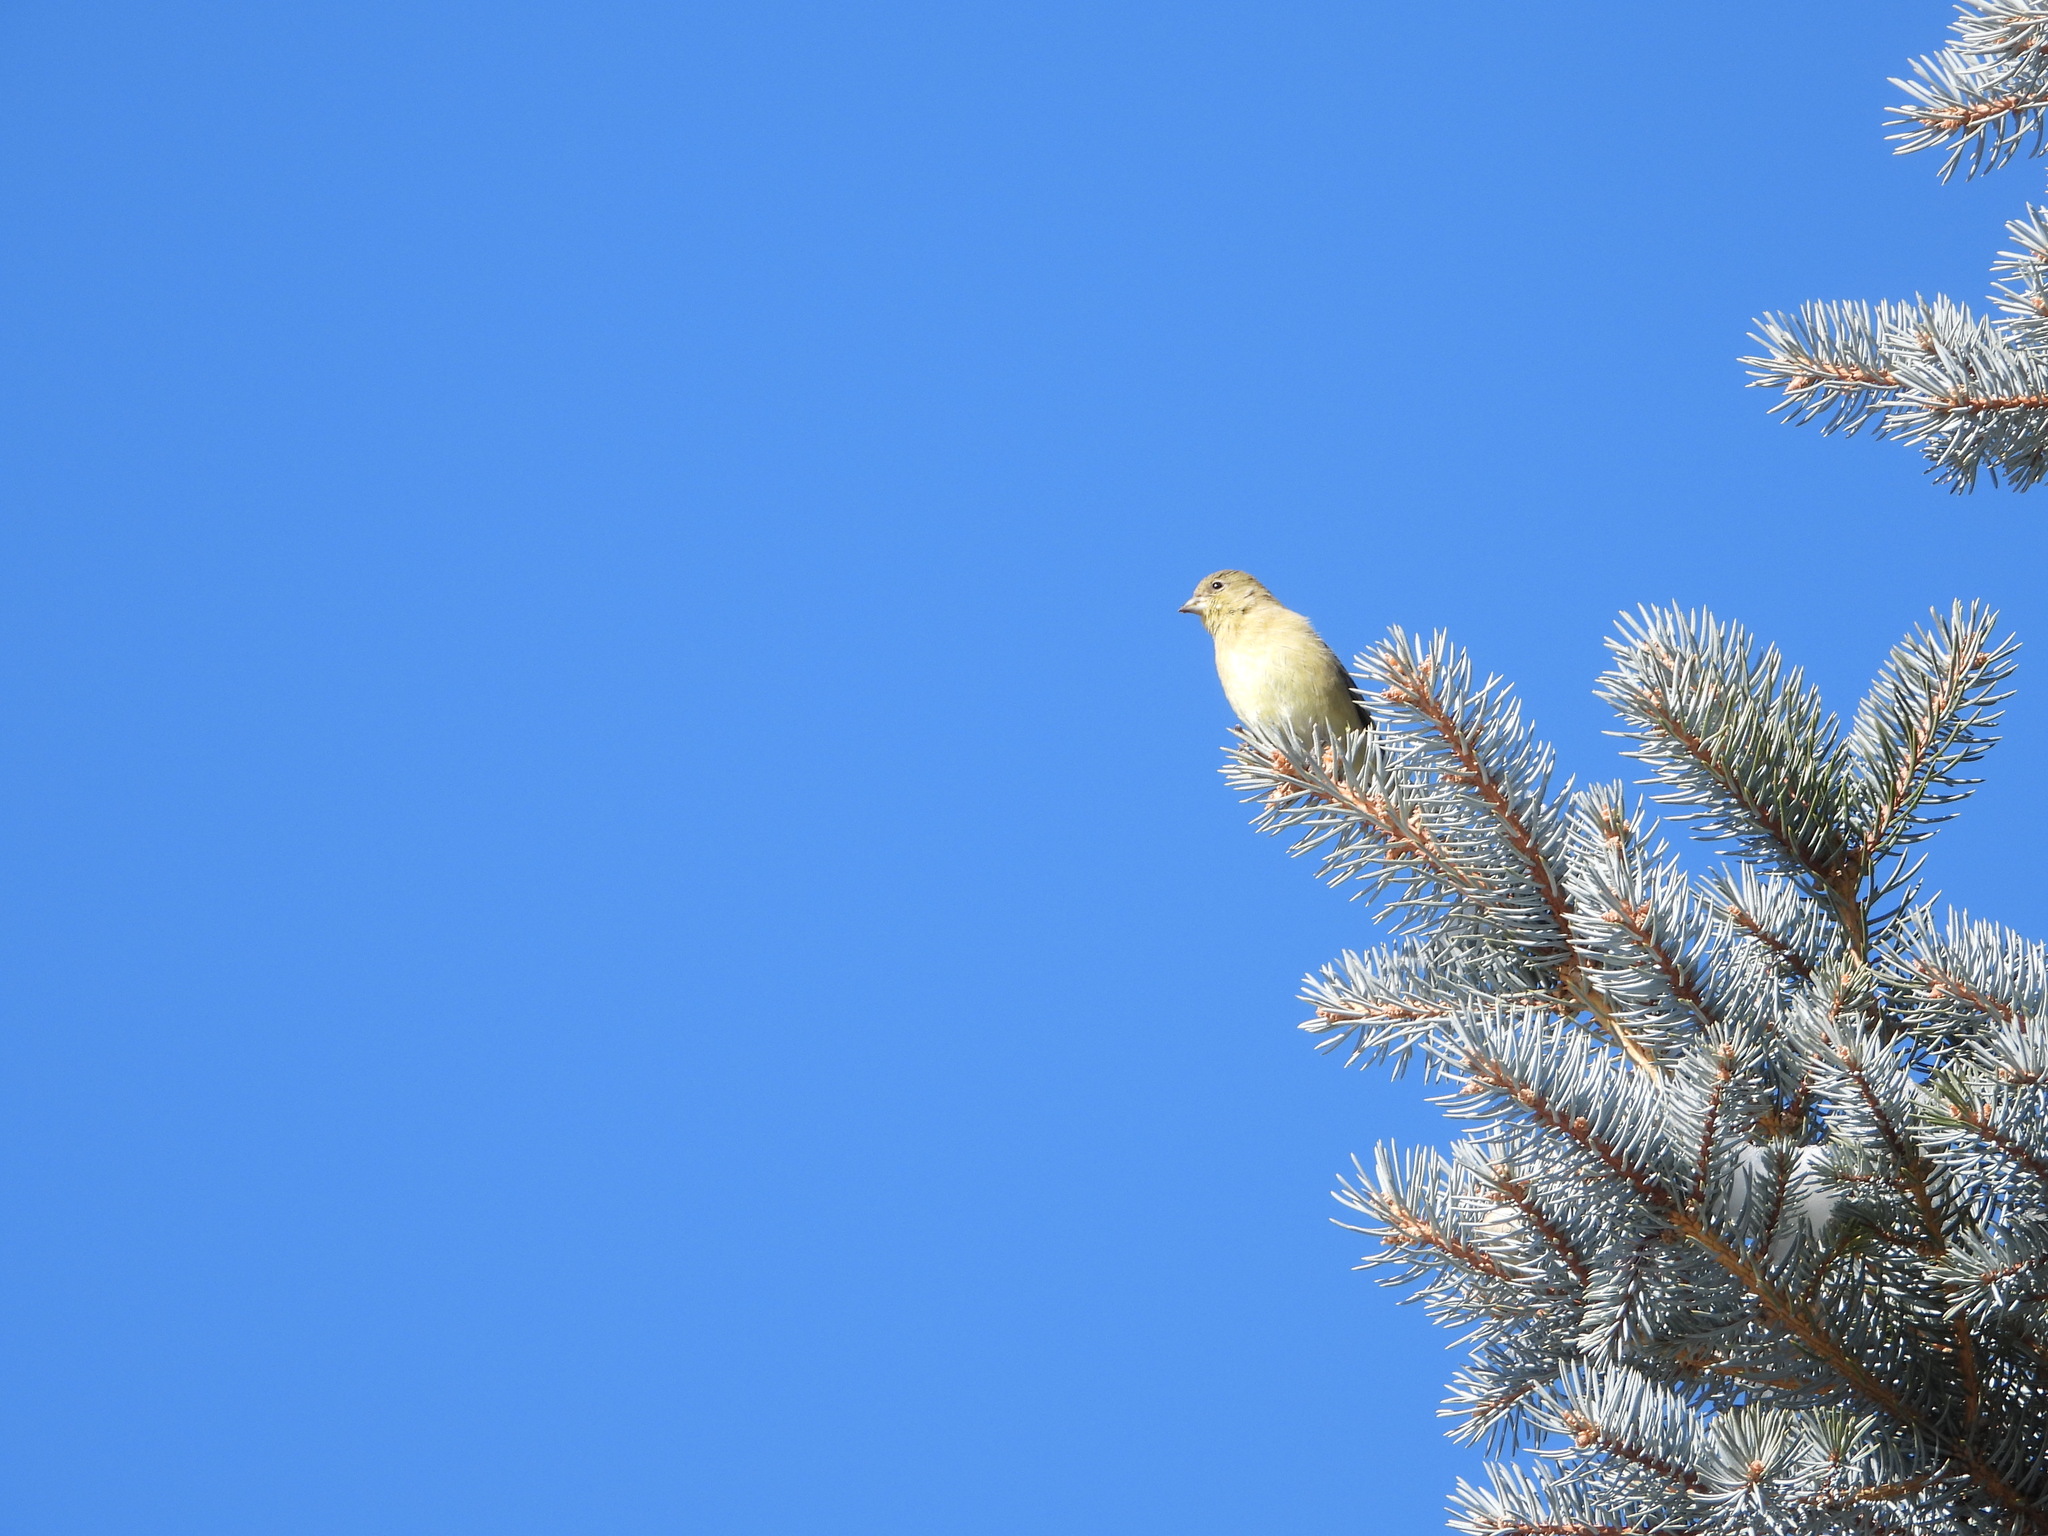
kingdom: Animalia
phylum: Chordata
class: Aves
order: Passeriformes
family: Fringillidae
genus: Spinus
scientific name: Spinus tristis
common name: American goldfinch
